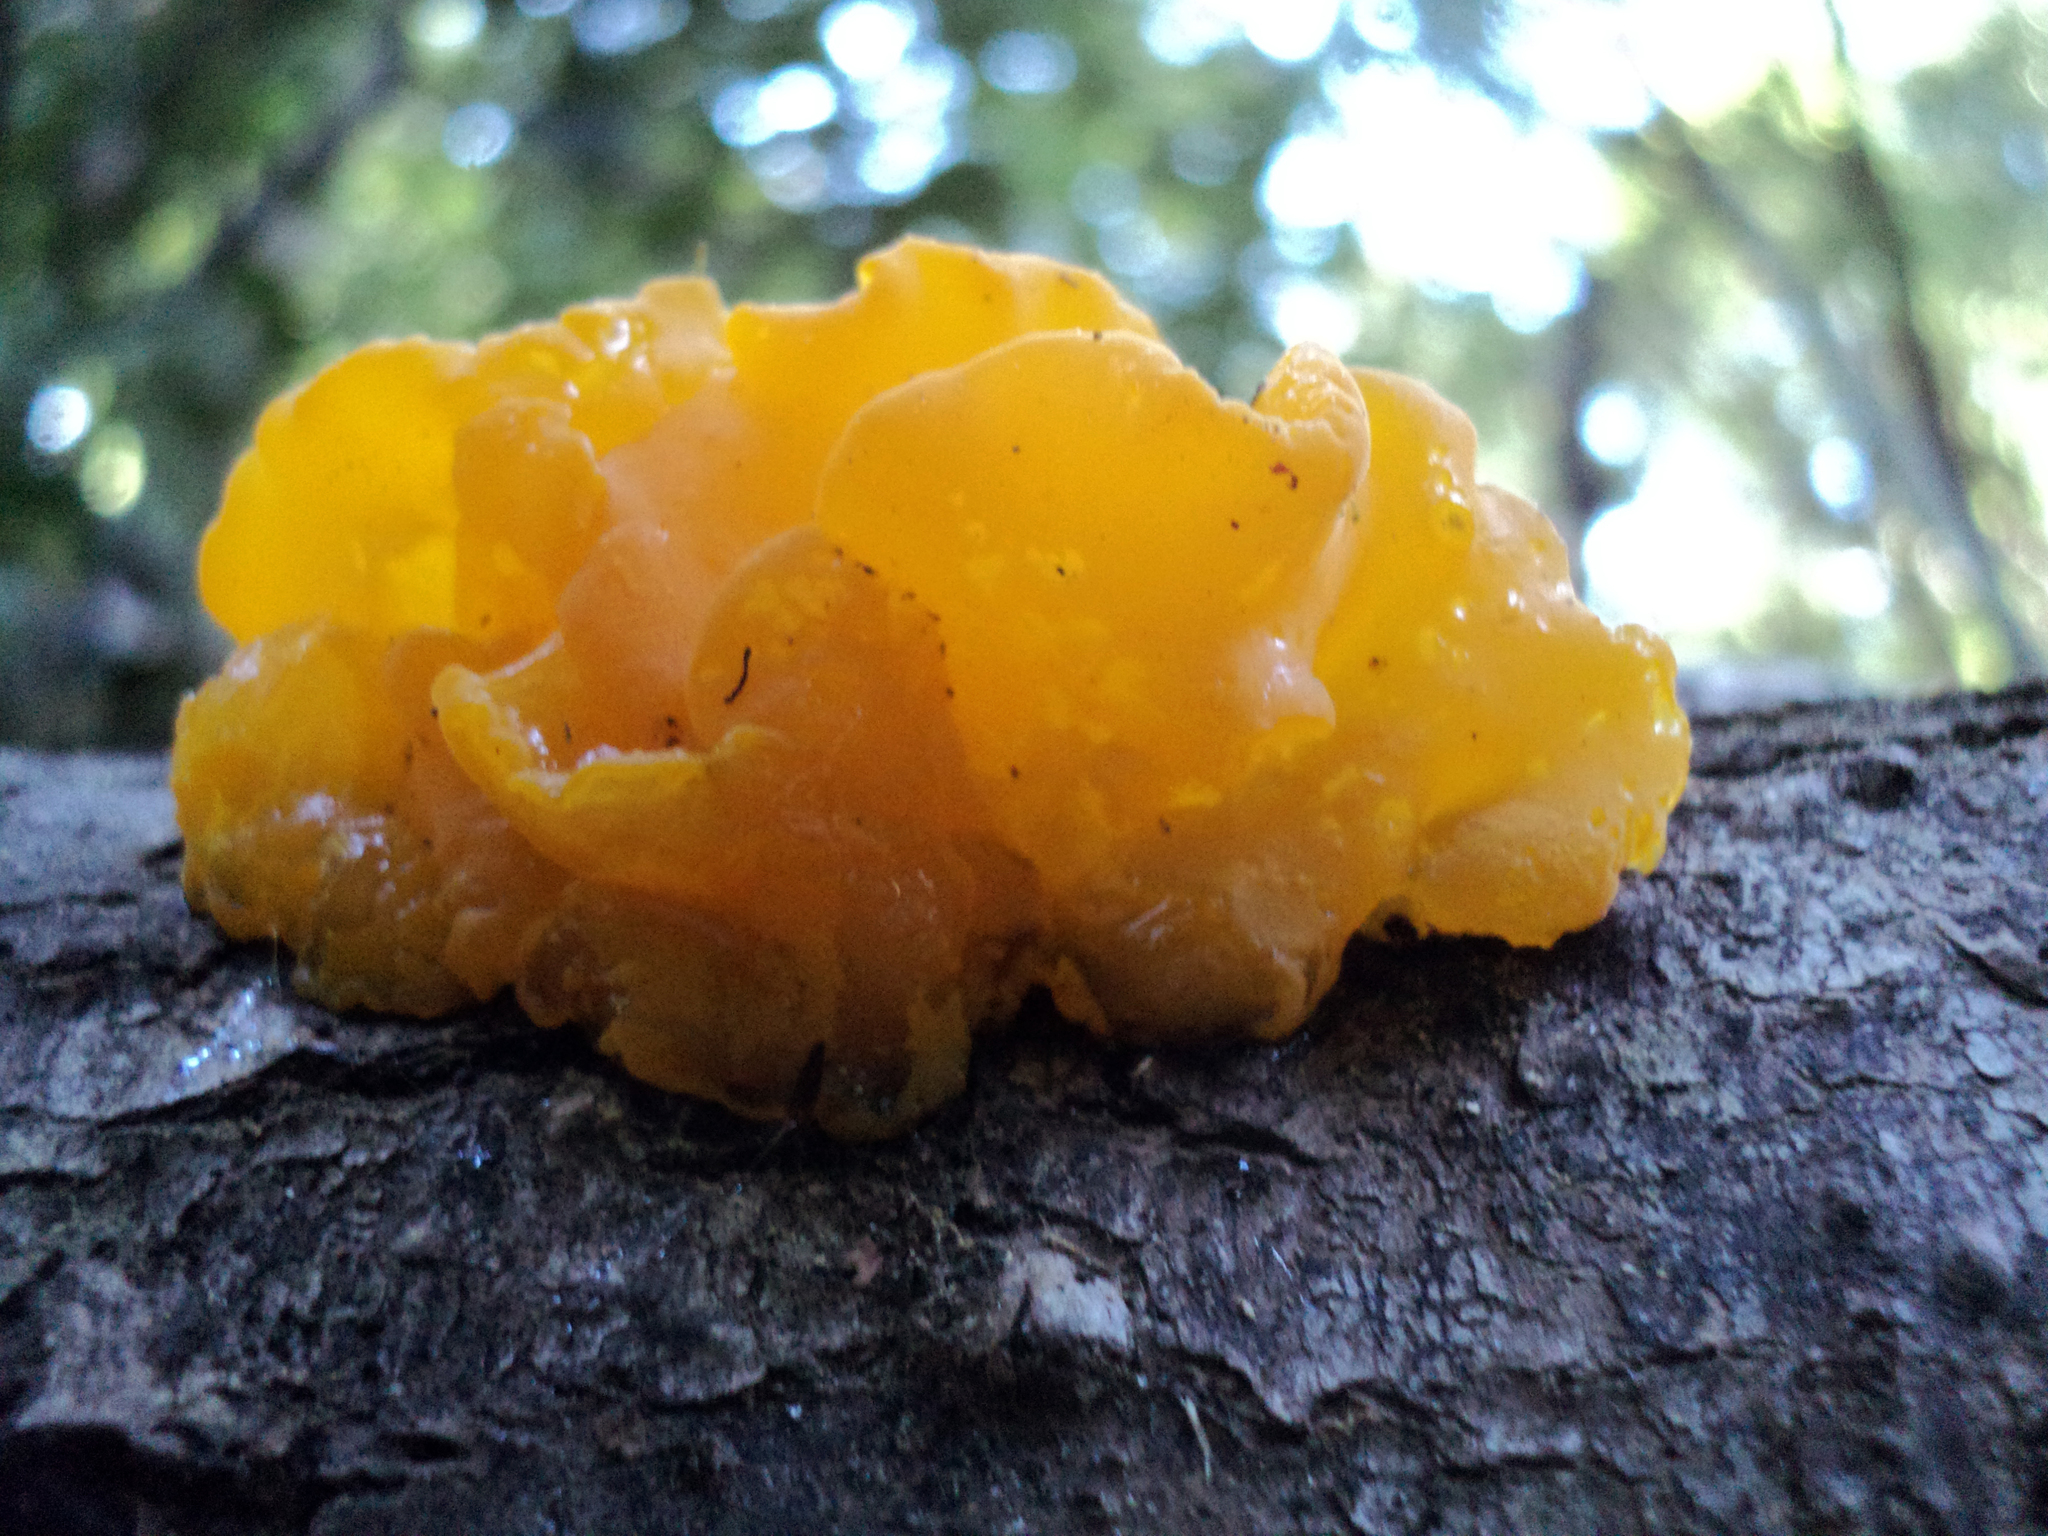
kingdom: Fungi
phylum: Basidiomycota
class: Tremellomycetes
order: Tremellales
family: Naemateliaceae
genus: Naematelia
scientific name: Naematelia aurantia
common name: Golden ear
